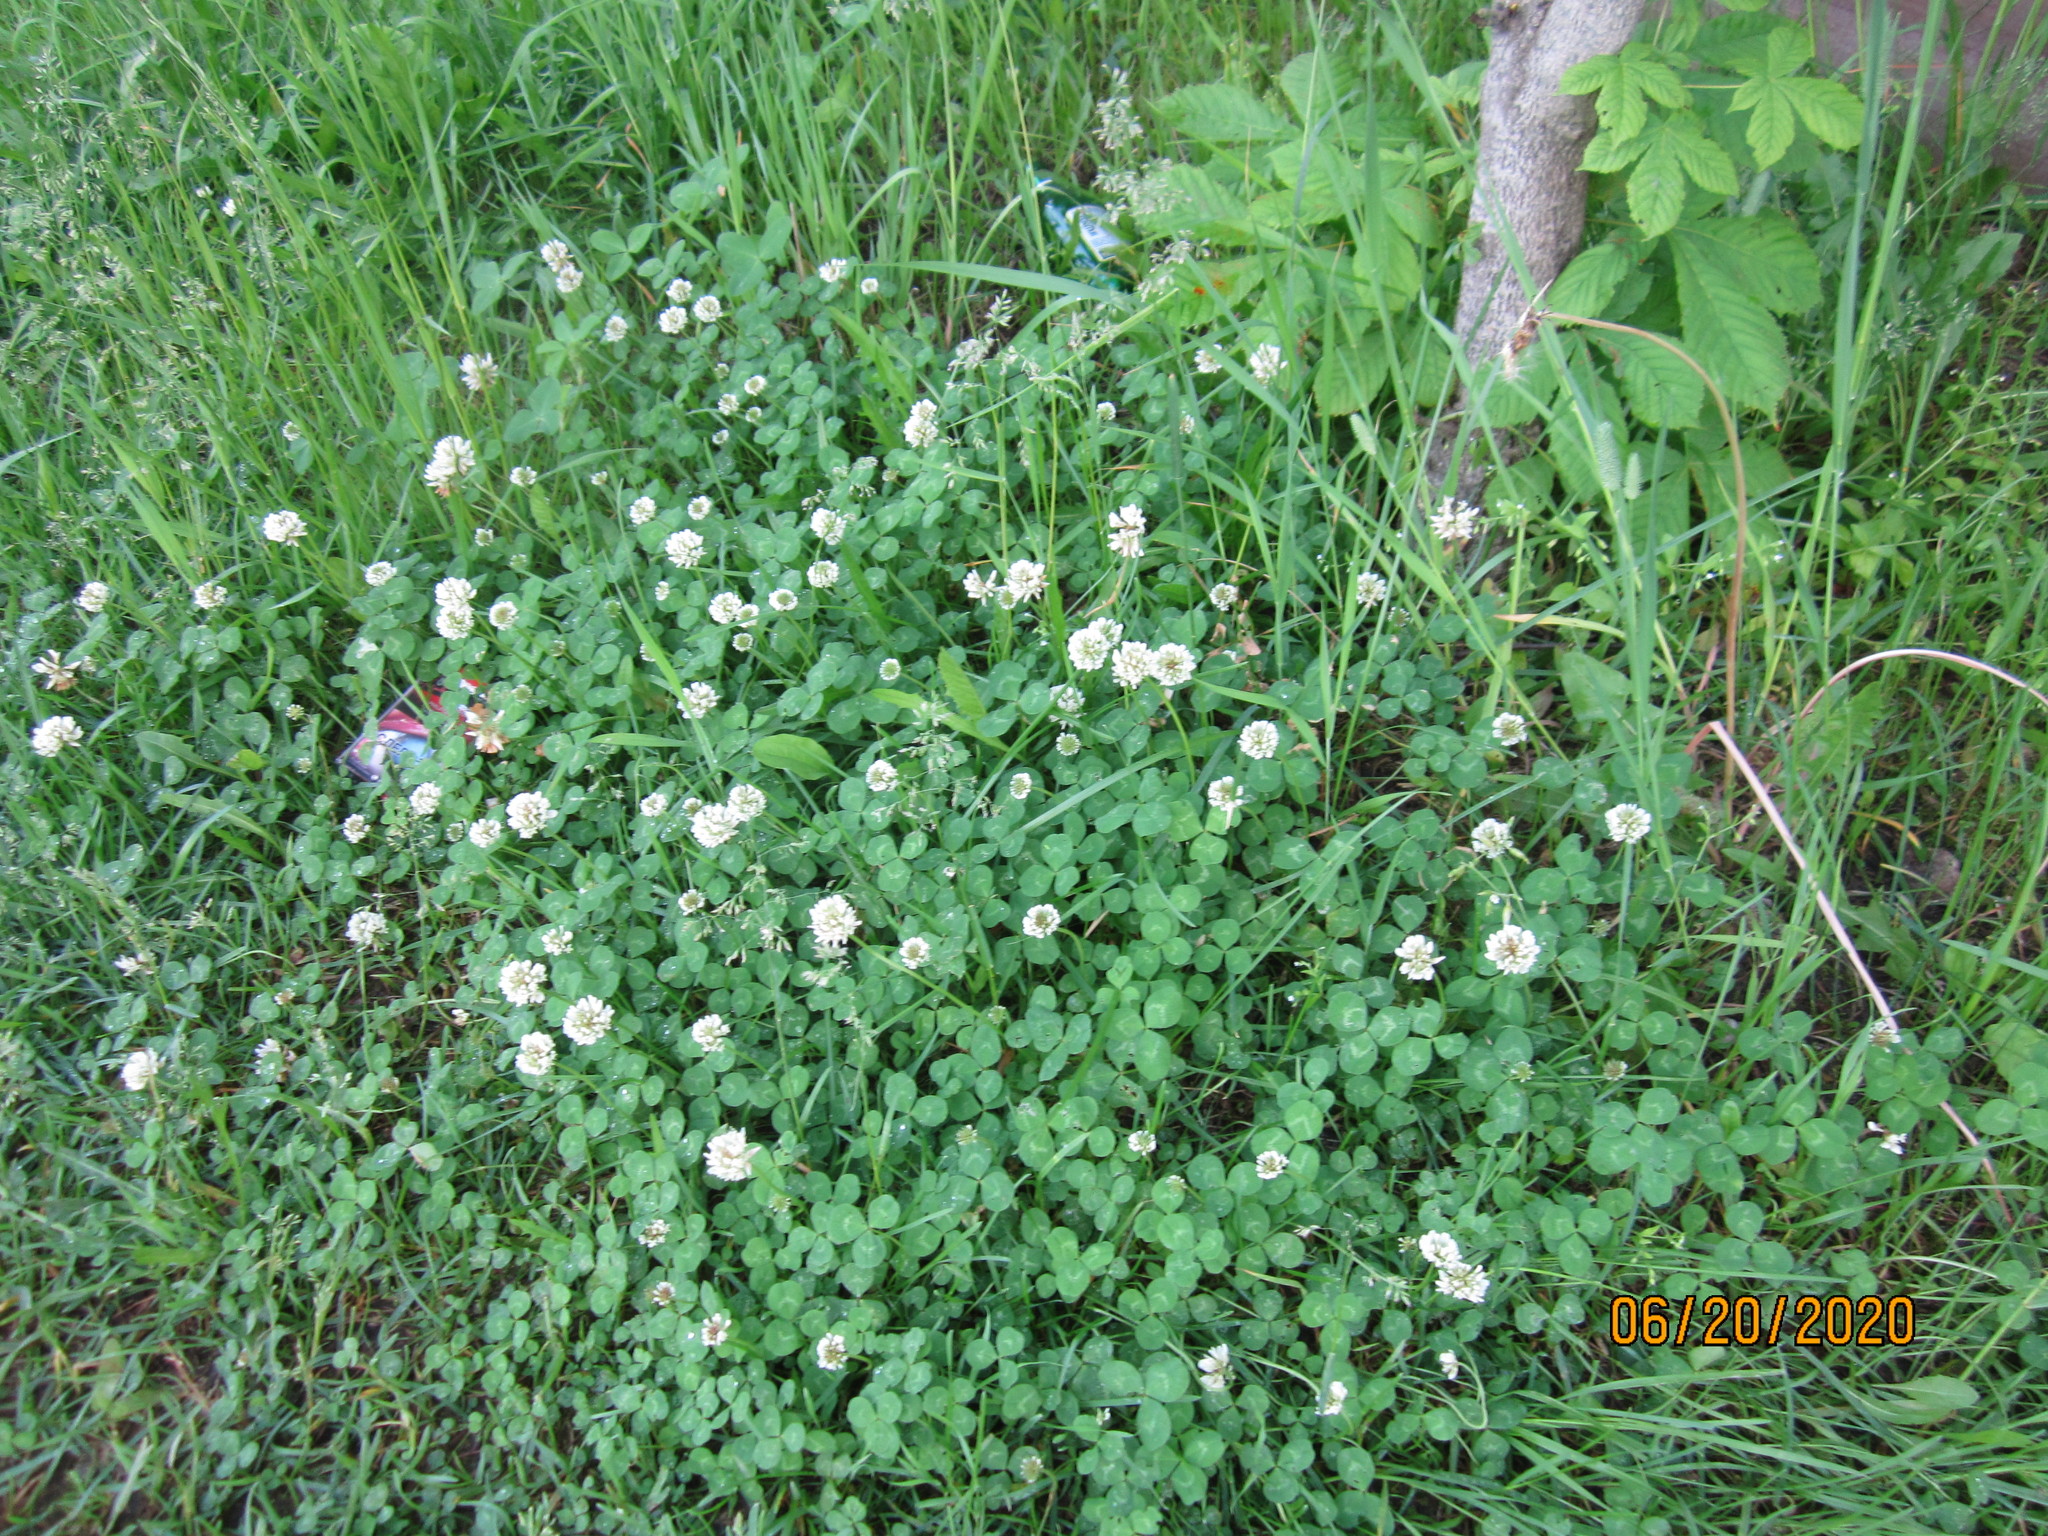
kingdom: Plantae
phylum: Tracheophyta
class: Magnoliopsida
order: Fabales
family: Fabaceae
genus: Trifolium
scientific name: Trifolium repens
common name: White clover
